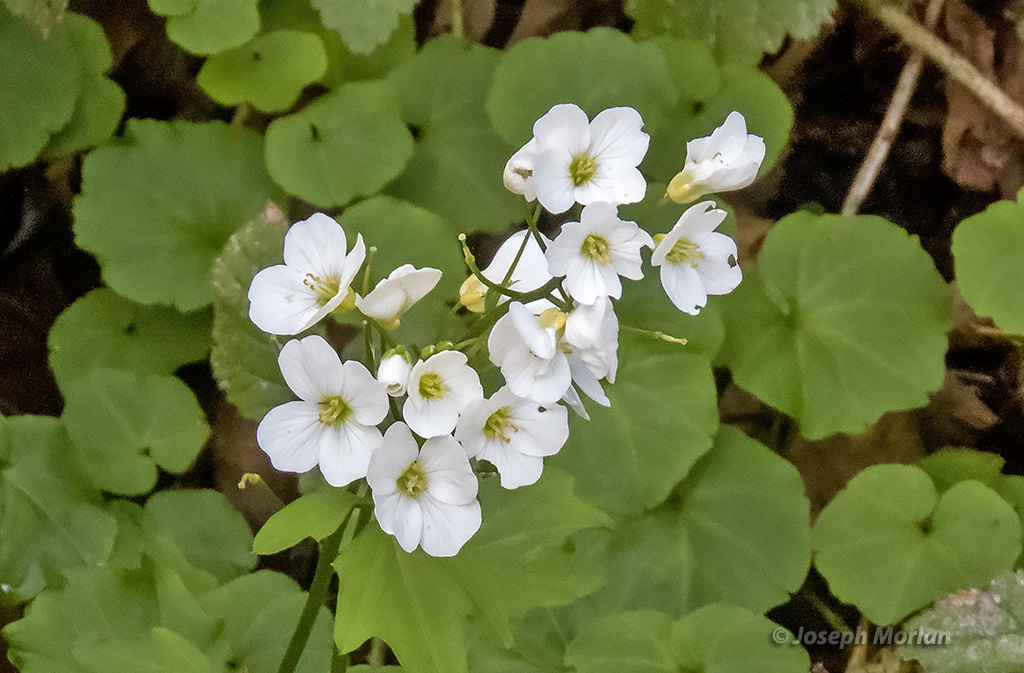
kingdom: Plantae
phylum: Tracheophyta
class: Magnoliopsida
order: Brassicales
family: Brassicaceae
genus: Cardamine
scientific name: Cardamine californica
